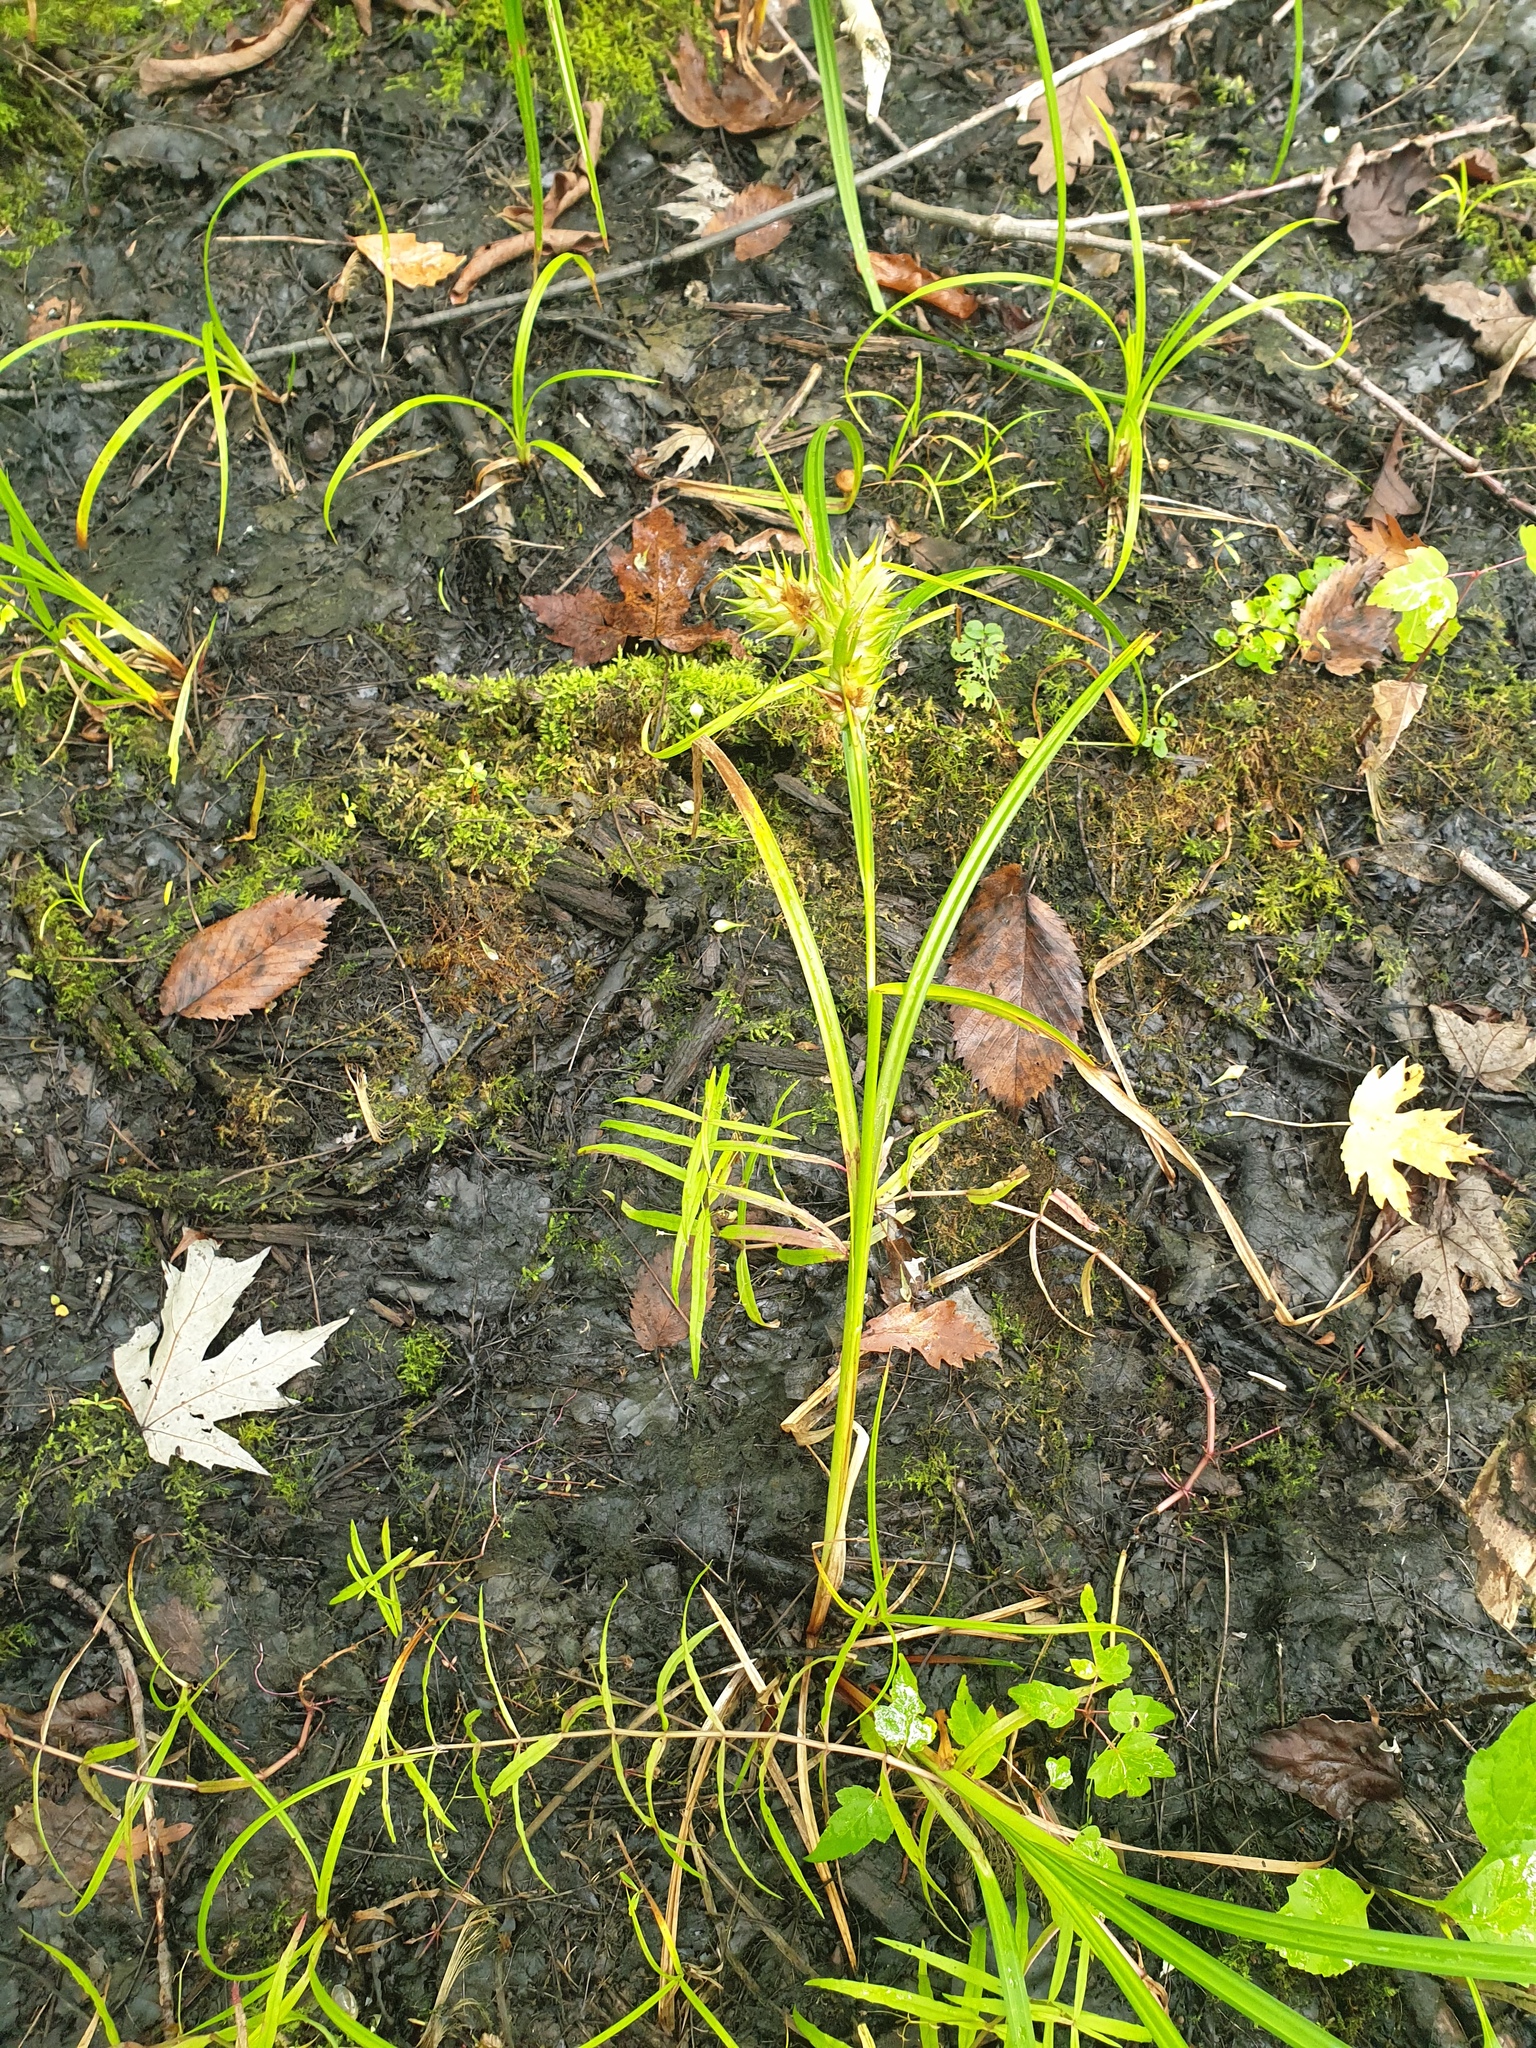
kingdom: Plantae
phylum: Tracheophyta
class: Liliopsida
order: Poales
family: Cyperaceae
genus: Carex
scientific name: Carex lupulina
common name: Hop sedge
